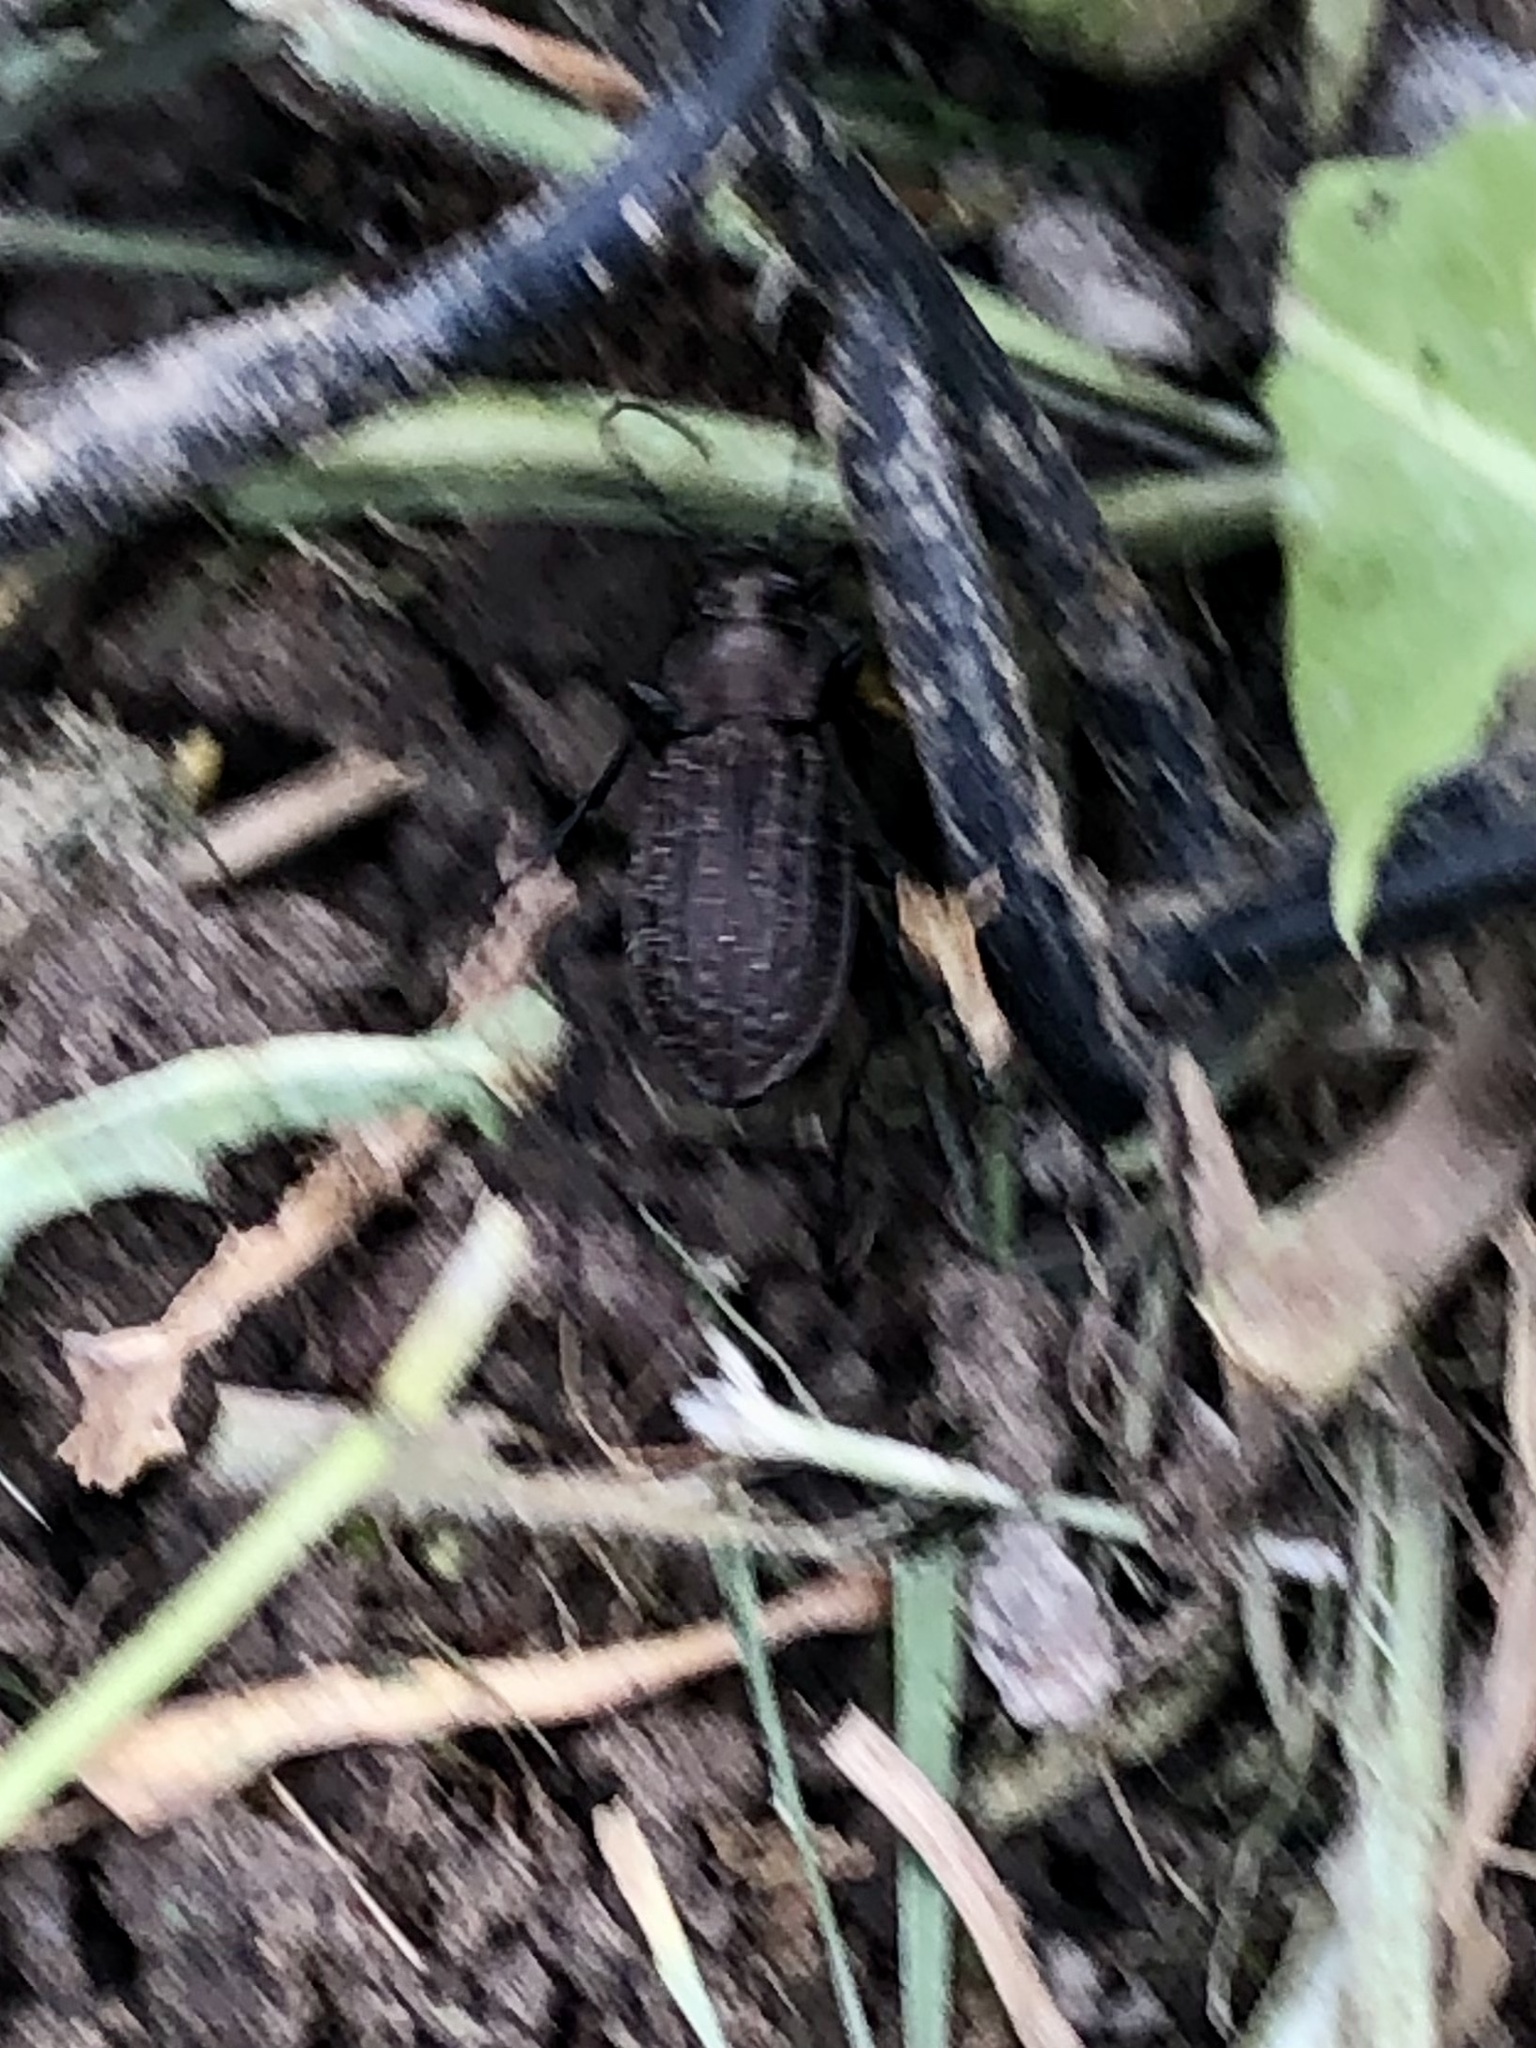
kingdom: Animalia
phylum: Arthropoda
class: Insecta
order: Coleoptera
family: Carabidae
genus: Carabus
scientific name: Carabus granulatus
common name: Granulate ground beetle
